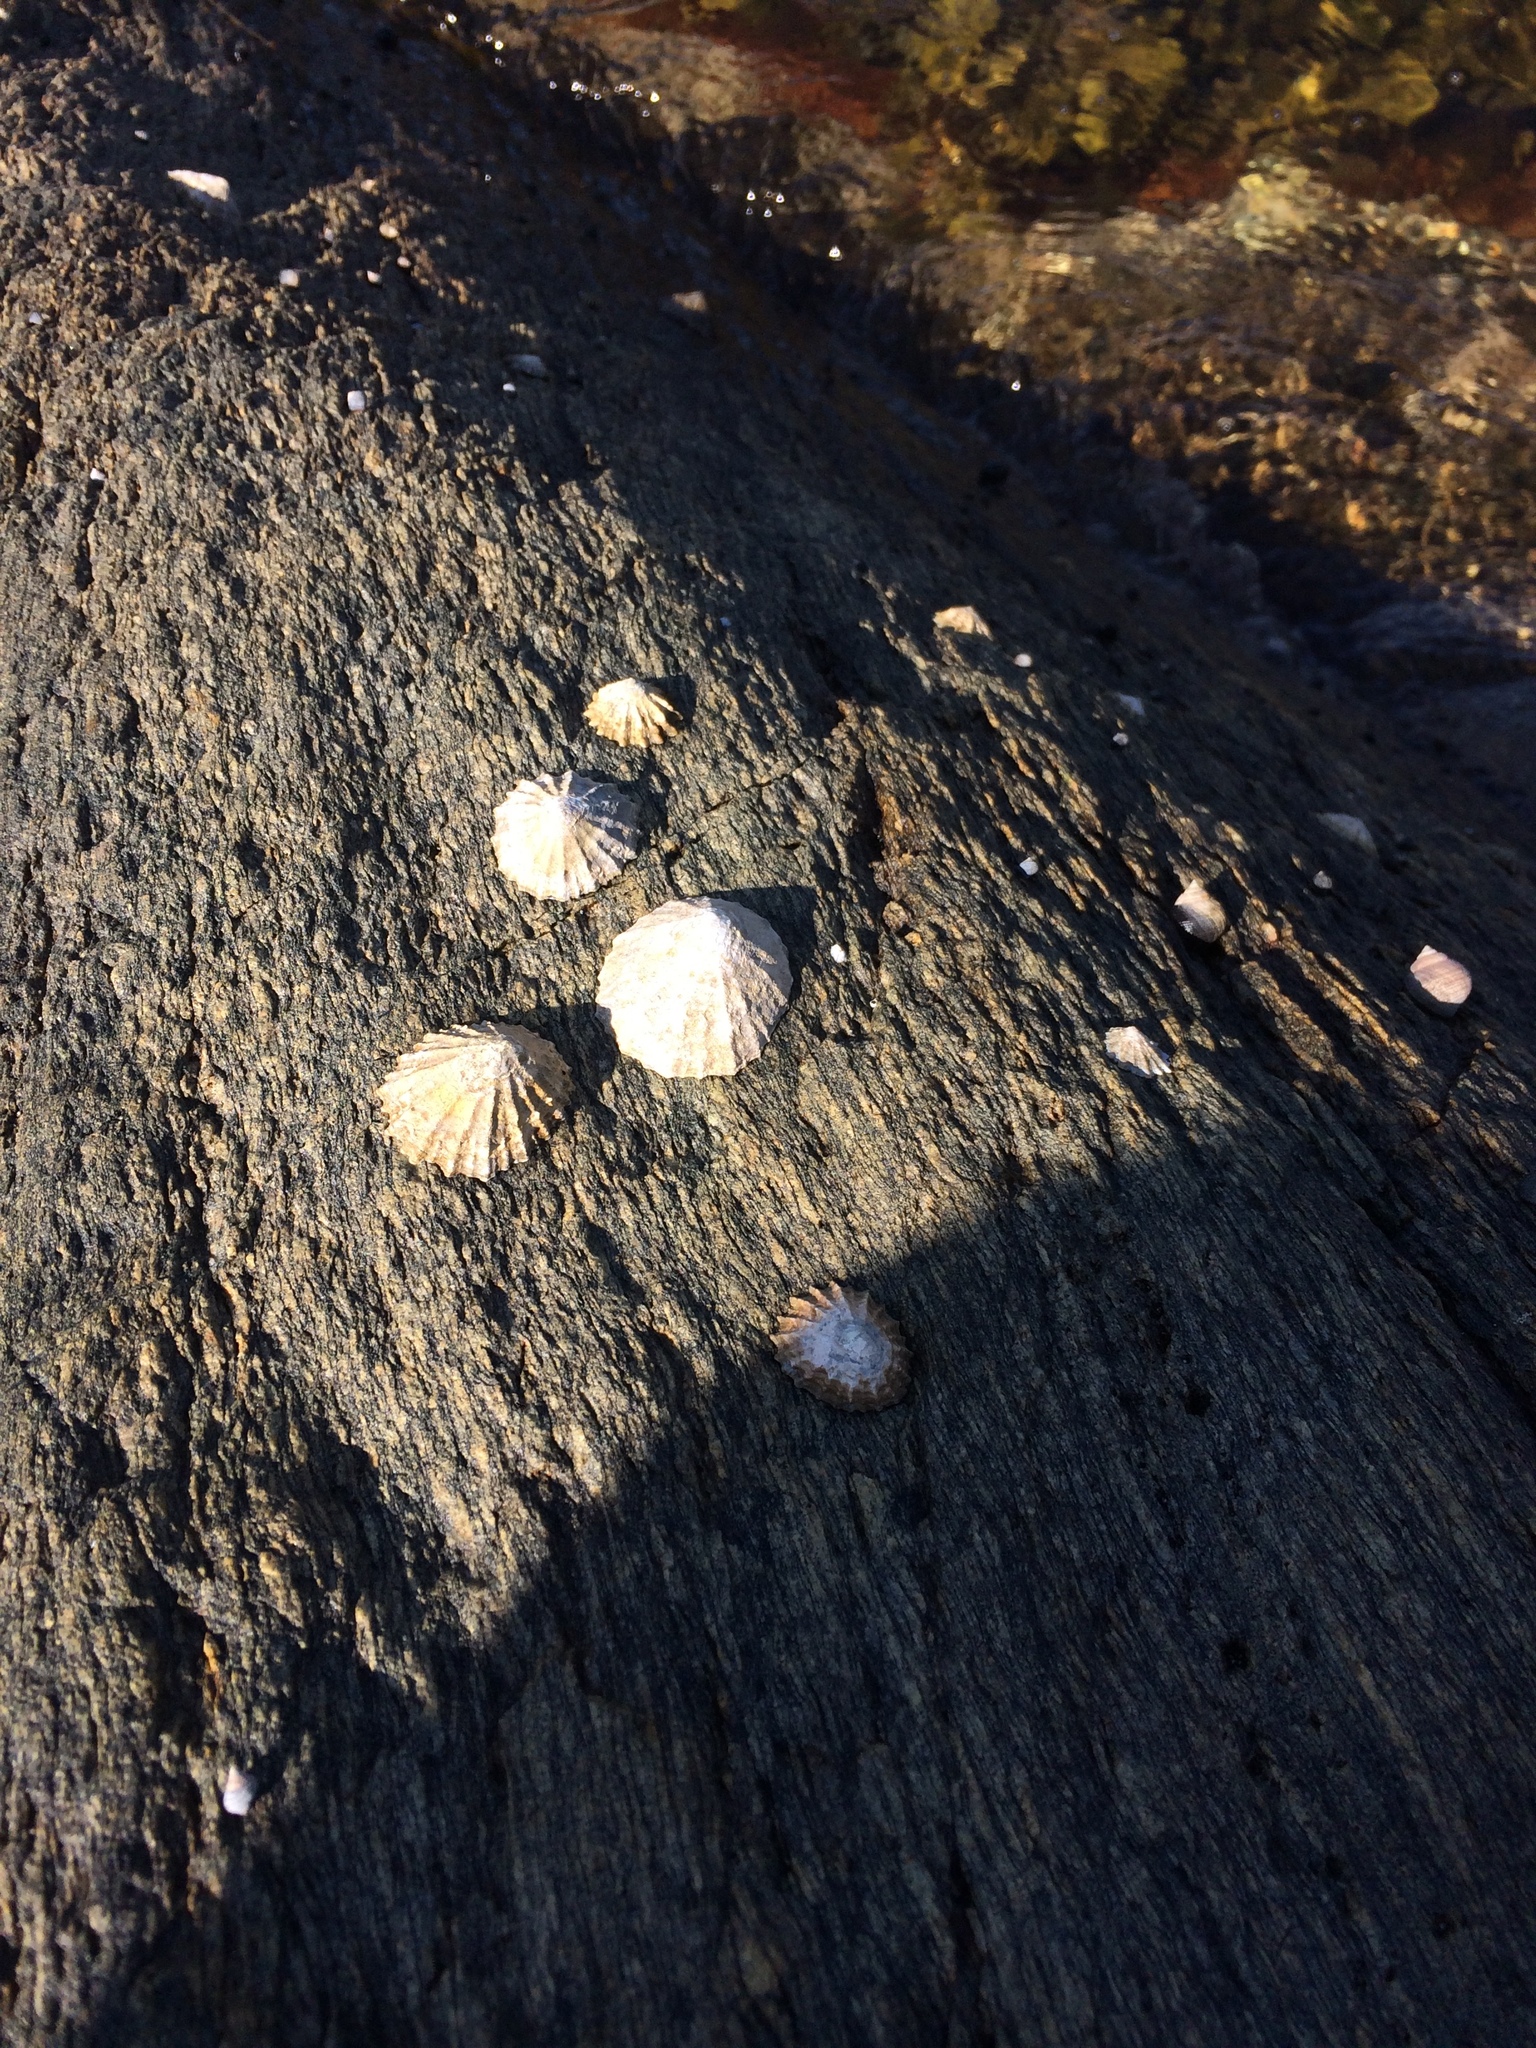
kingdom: Animalia
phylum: Mollusca
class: Gastropoda
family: Patellidae
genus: Patella
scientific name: Patella vulgata
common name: Common limpet
